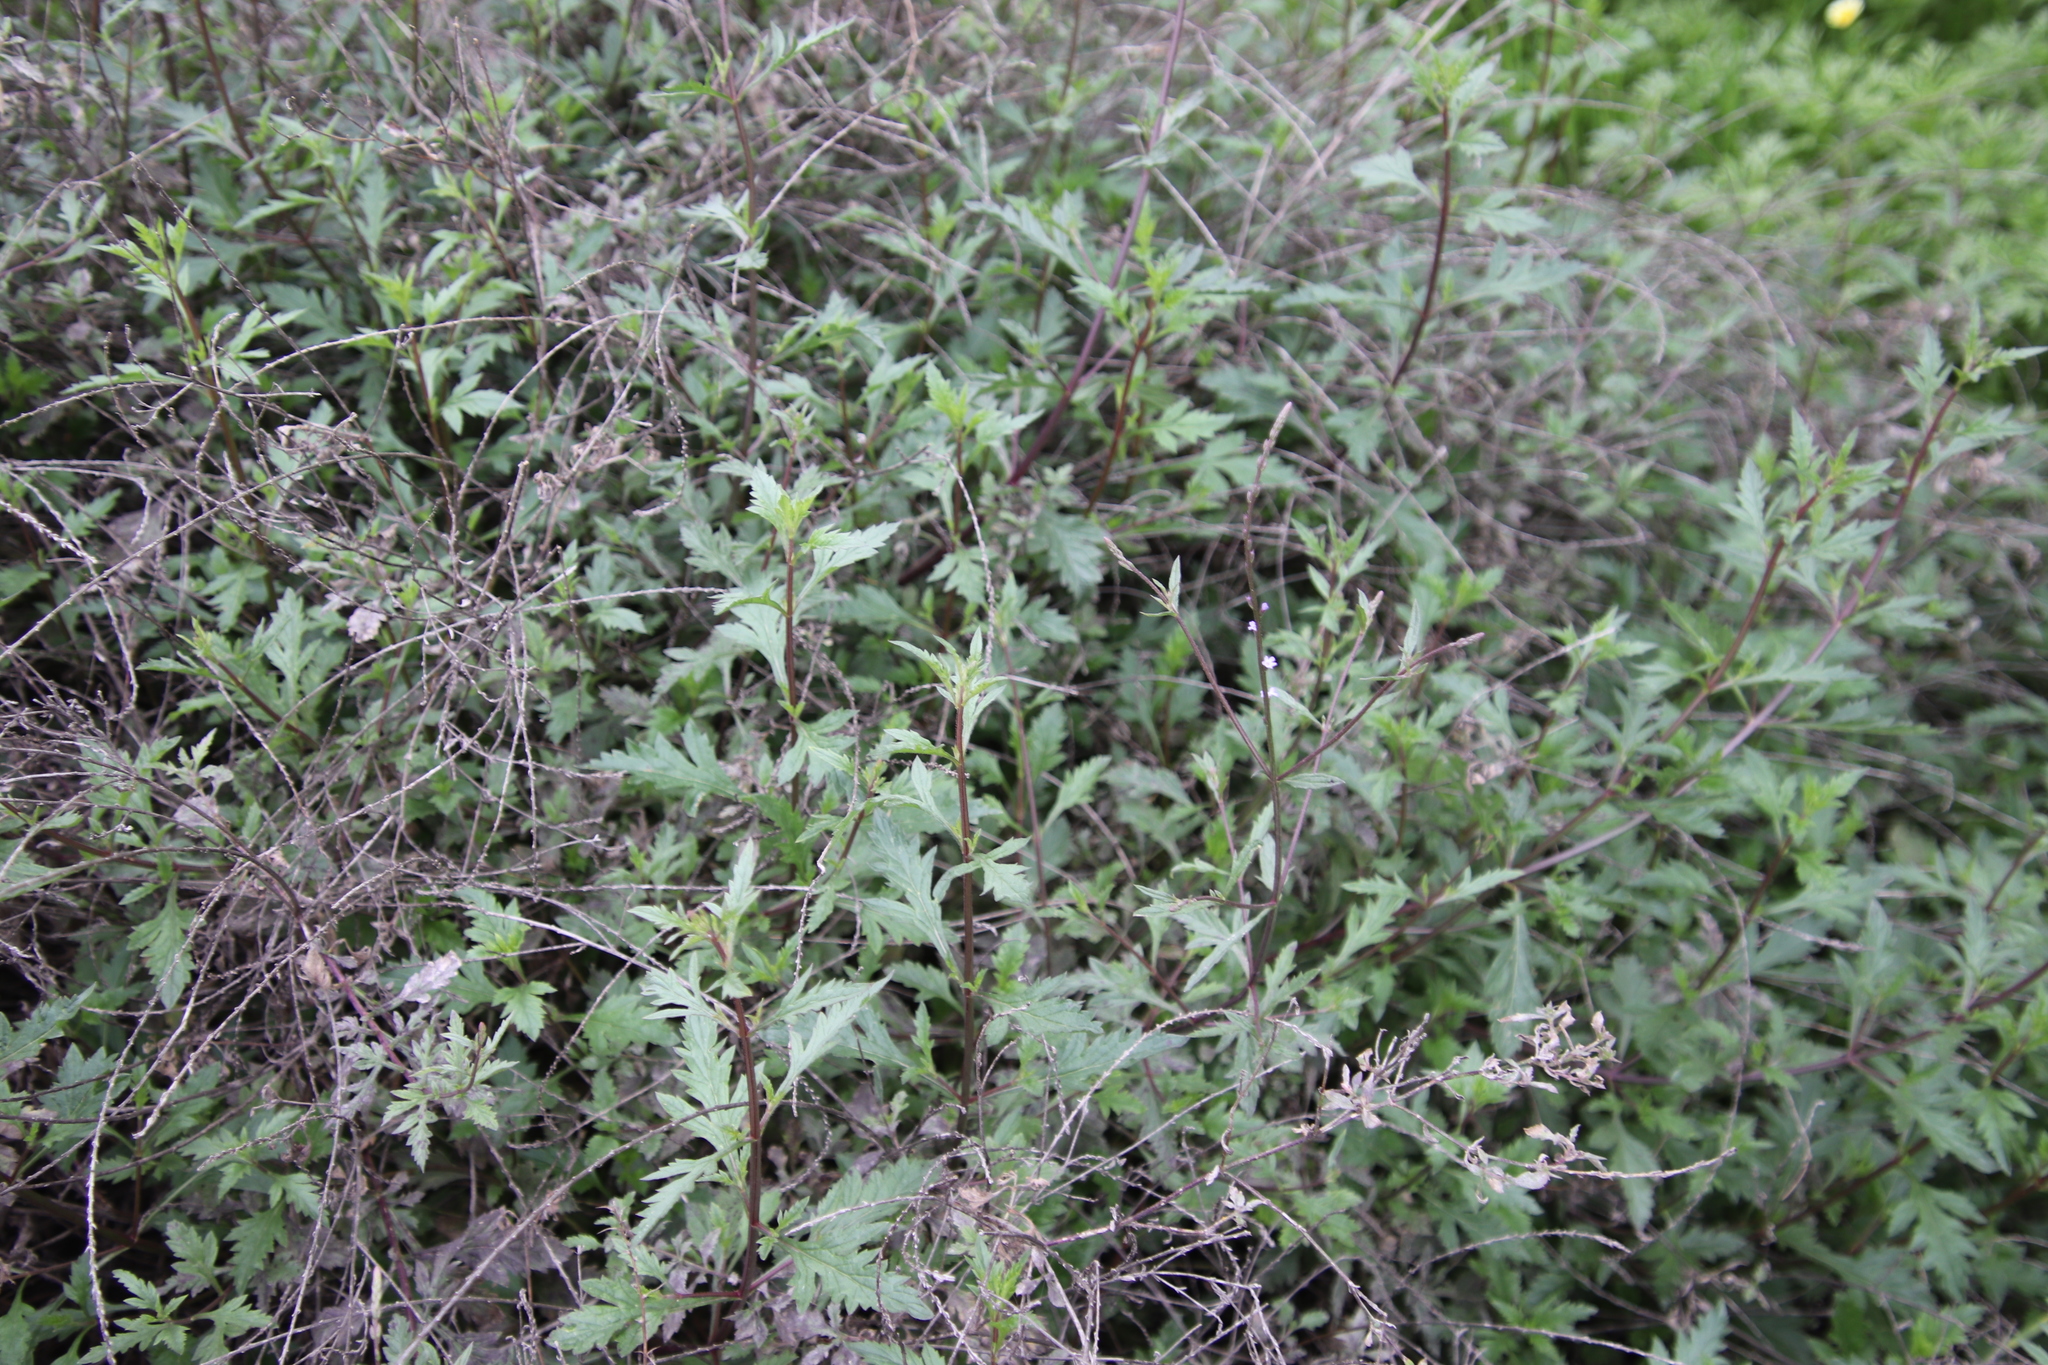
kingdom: Plantae
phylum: Tracheophyta
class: Magnoliopsida
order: Lamiales
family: Verbenaceae
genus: Verbena
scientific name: Verbena menthifolia
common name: Mint-leaf vervain
